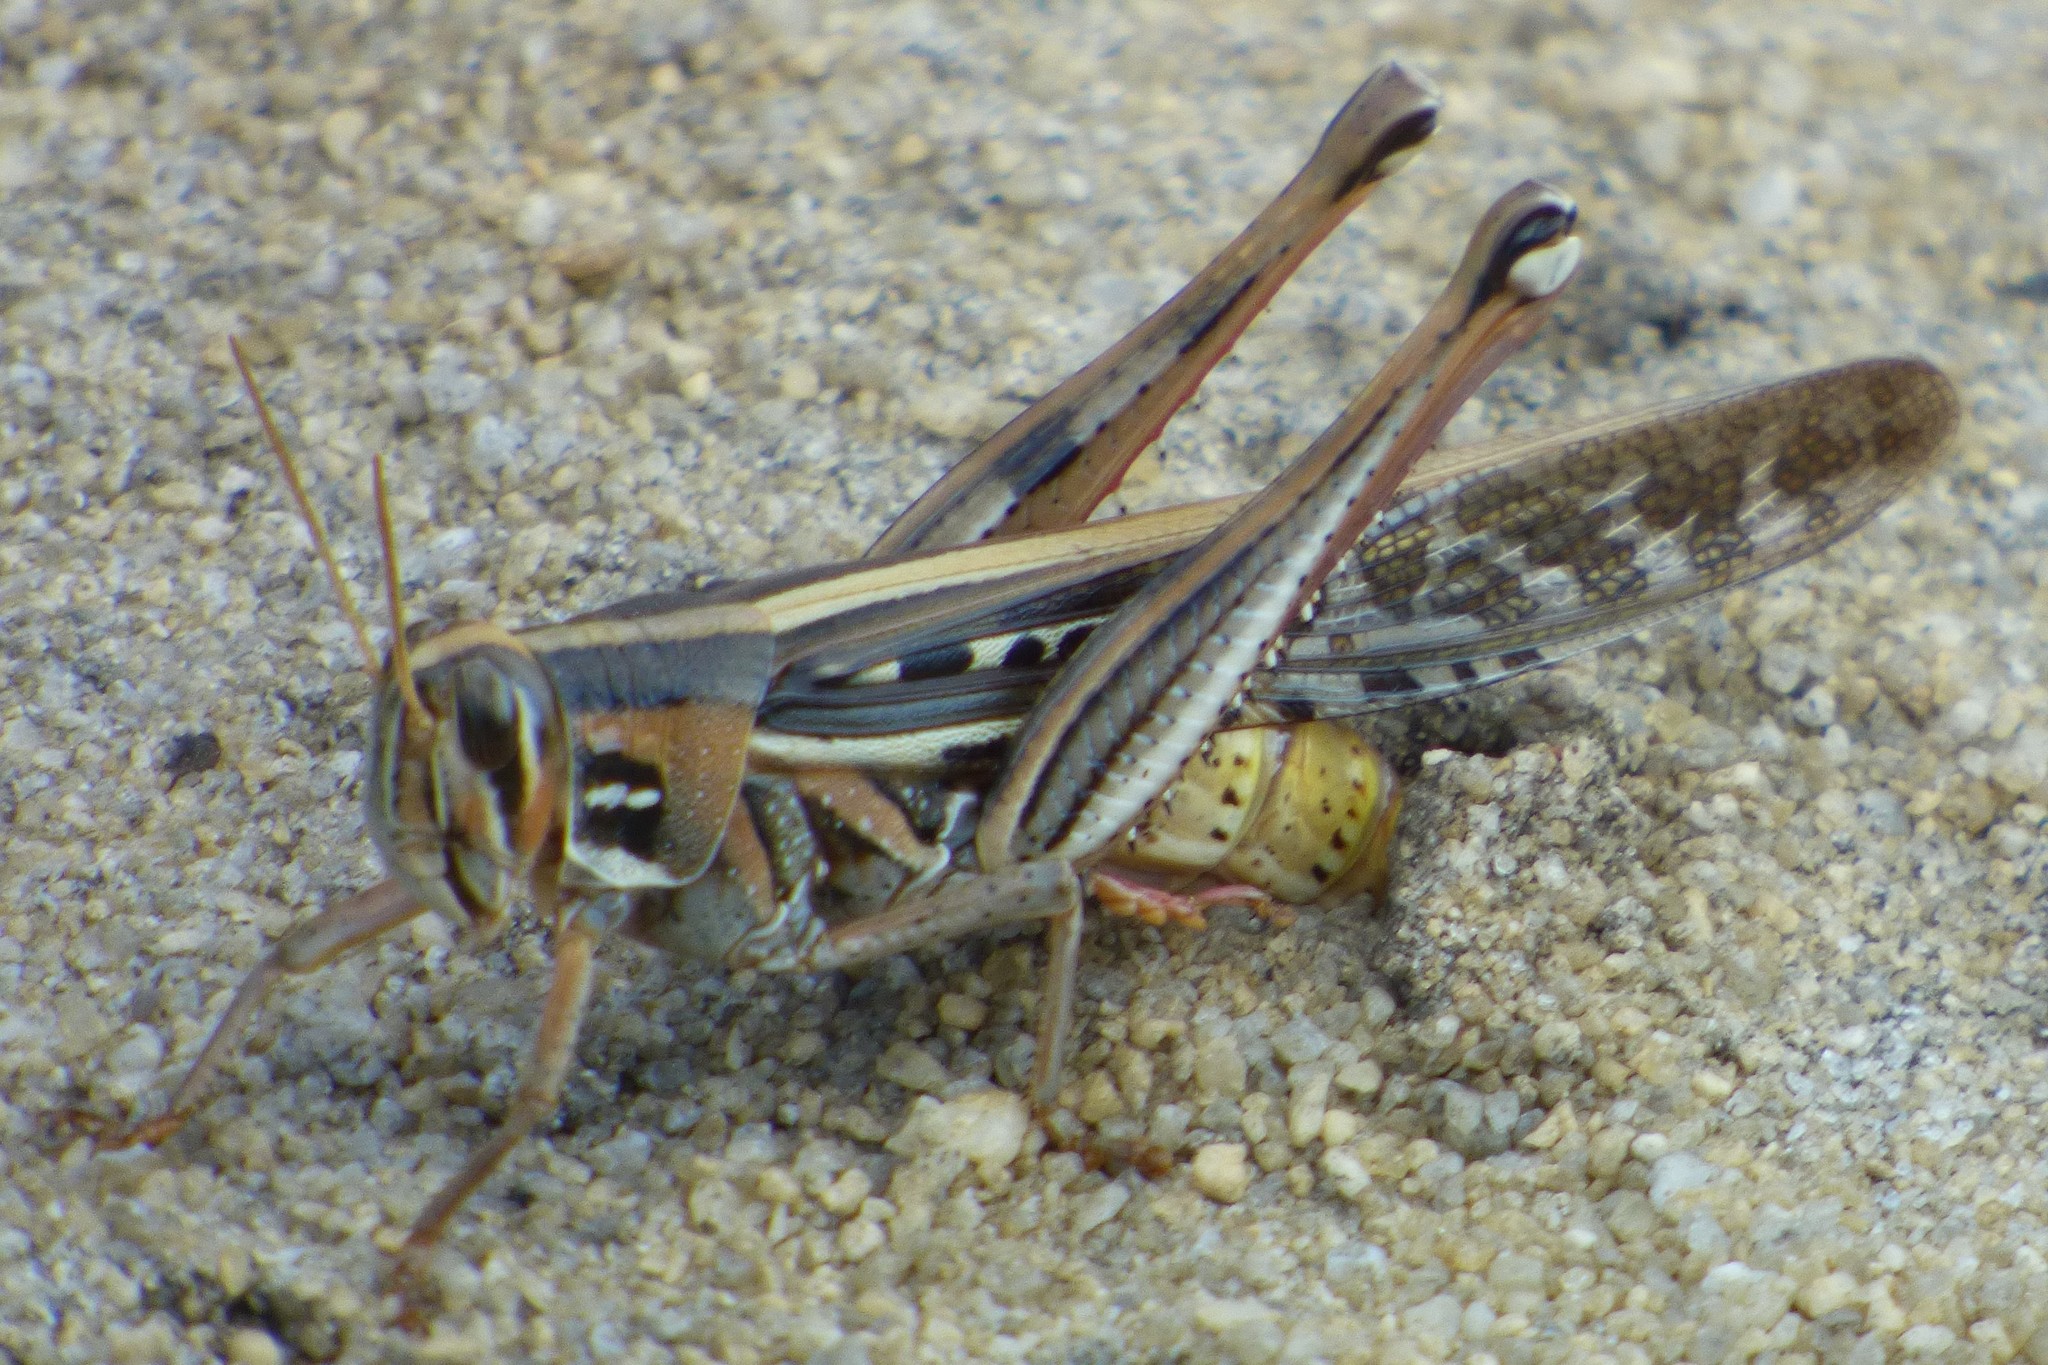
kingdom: Animalia
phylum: Arthropoda
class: Insecta
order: Orthoptera
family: Acrididae
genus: Schistocerca
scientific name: Schistocerca americana
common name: American bird locust
